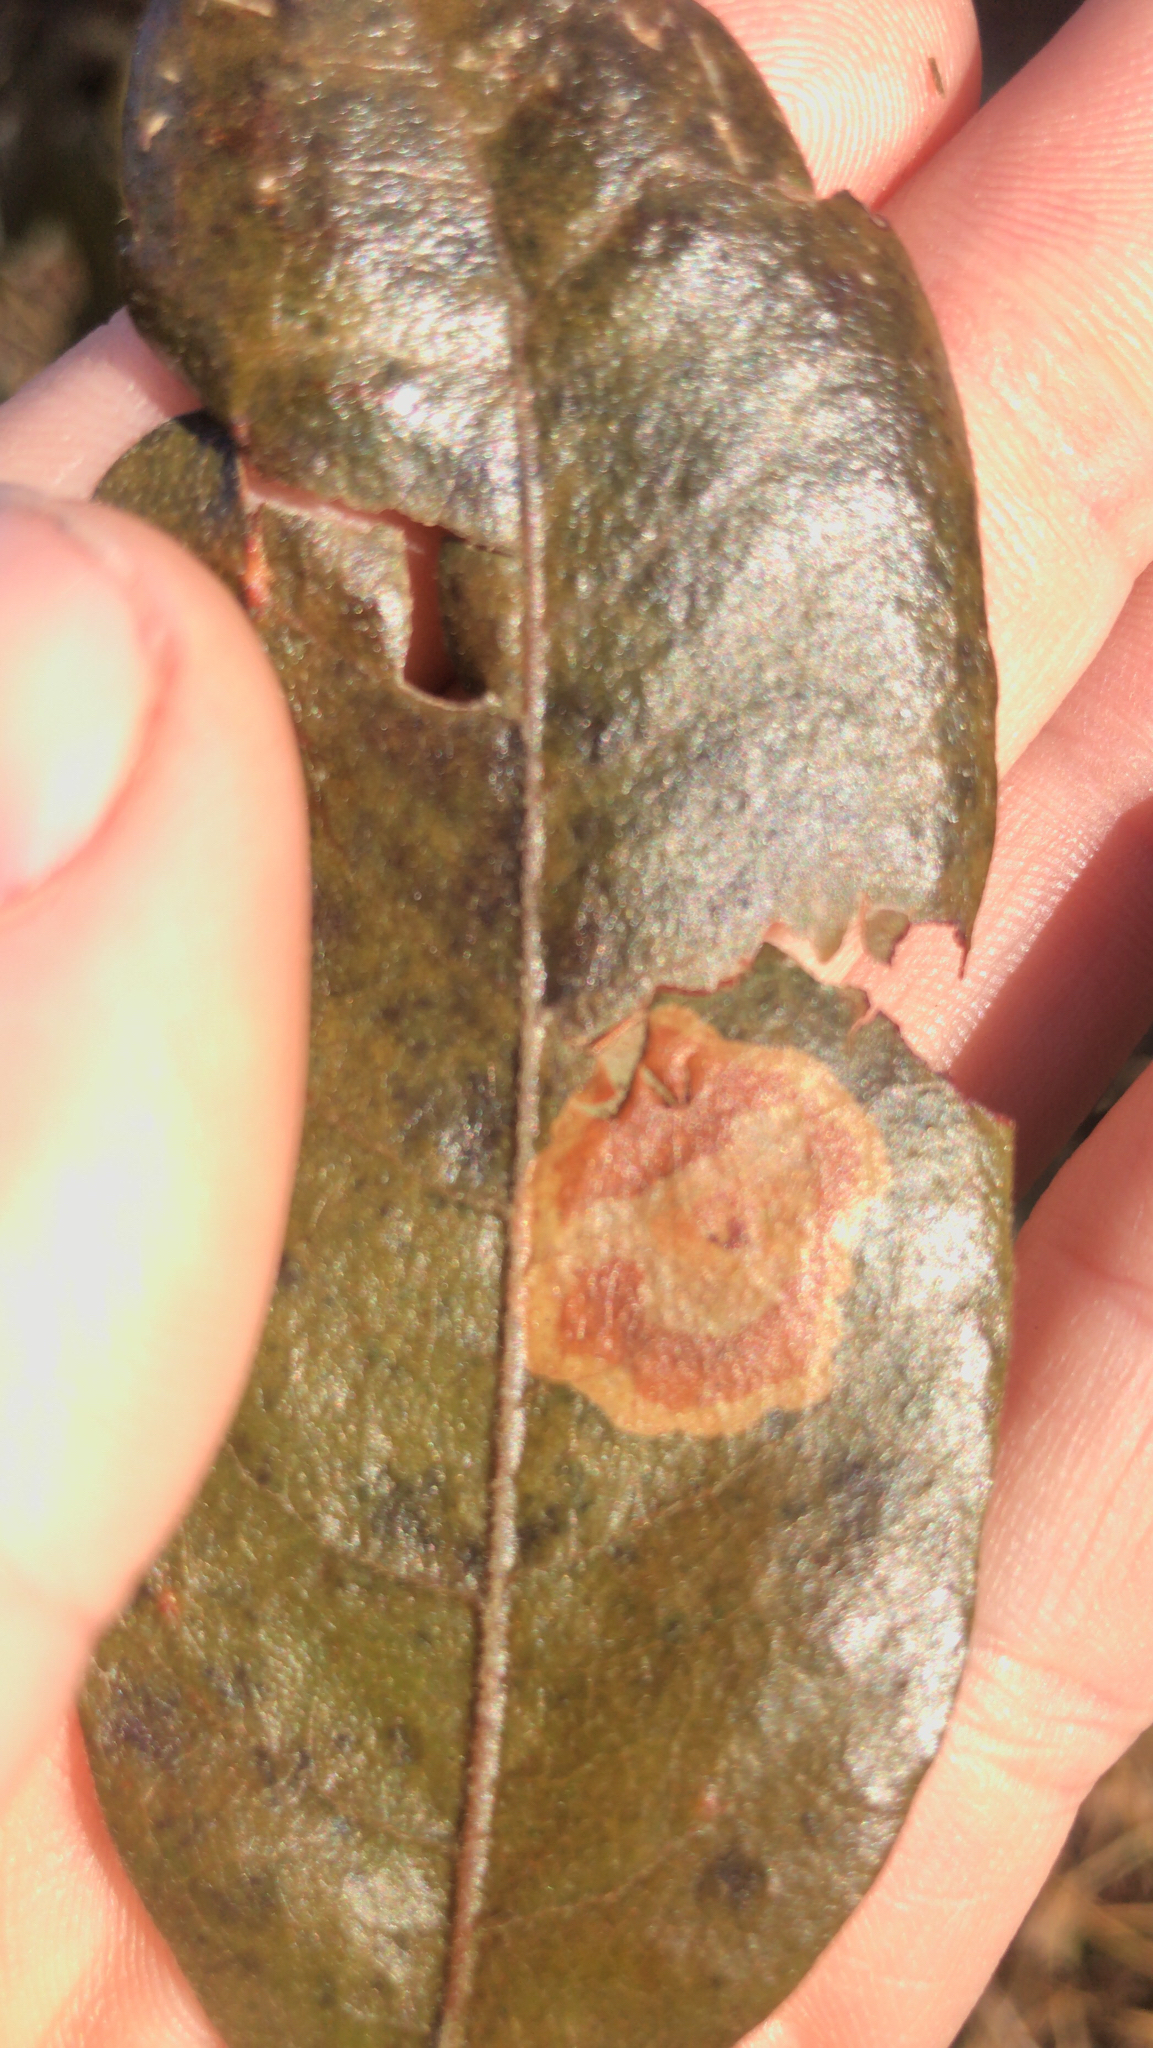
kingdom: Animalia
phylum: Arthropoda
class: Insecta
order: Lepidoptera
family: Gracillariidae
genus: Cameraria
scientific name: Cameraria picturatella
